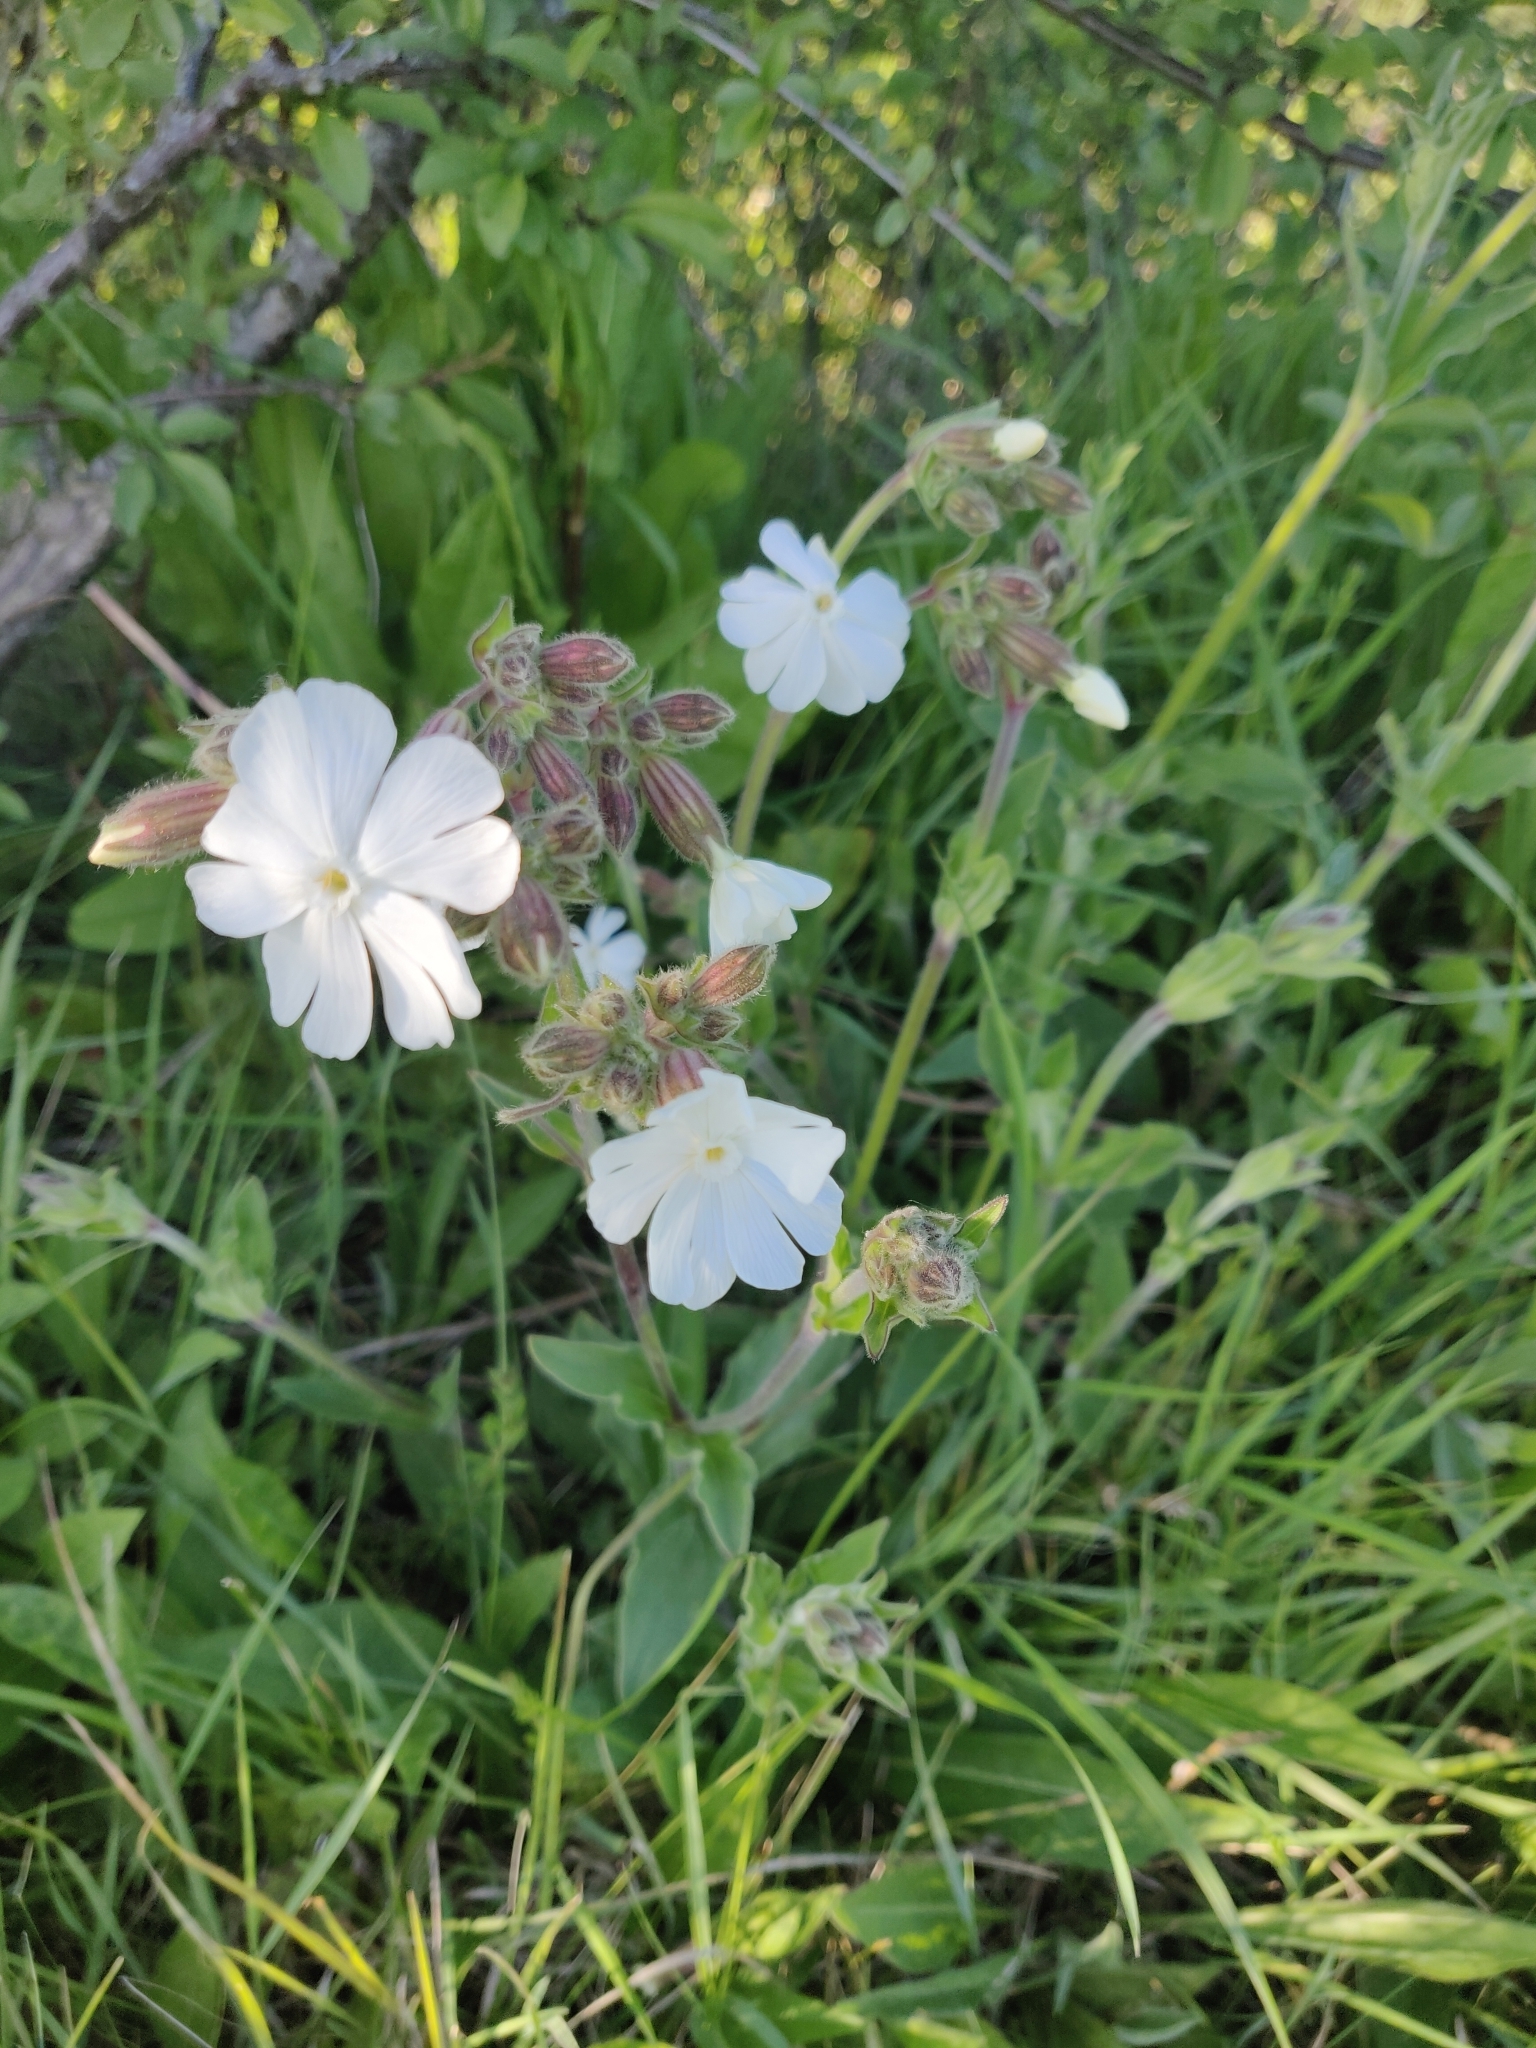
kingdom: Plantae
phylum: Tracheophyta
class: Magnoliopsida
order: Caryophyllales
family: Caryophyllaceae
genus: Silene
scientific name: Silene latifolia
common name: White campion
